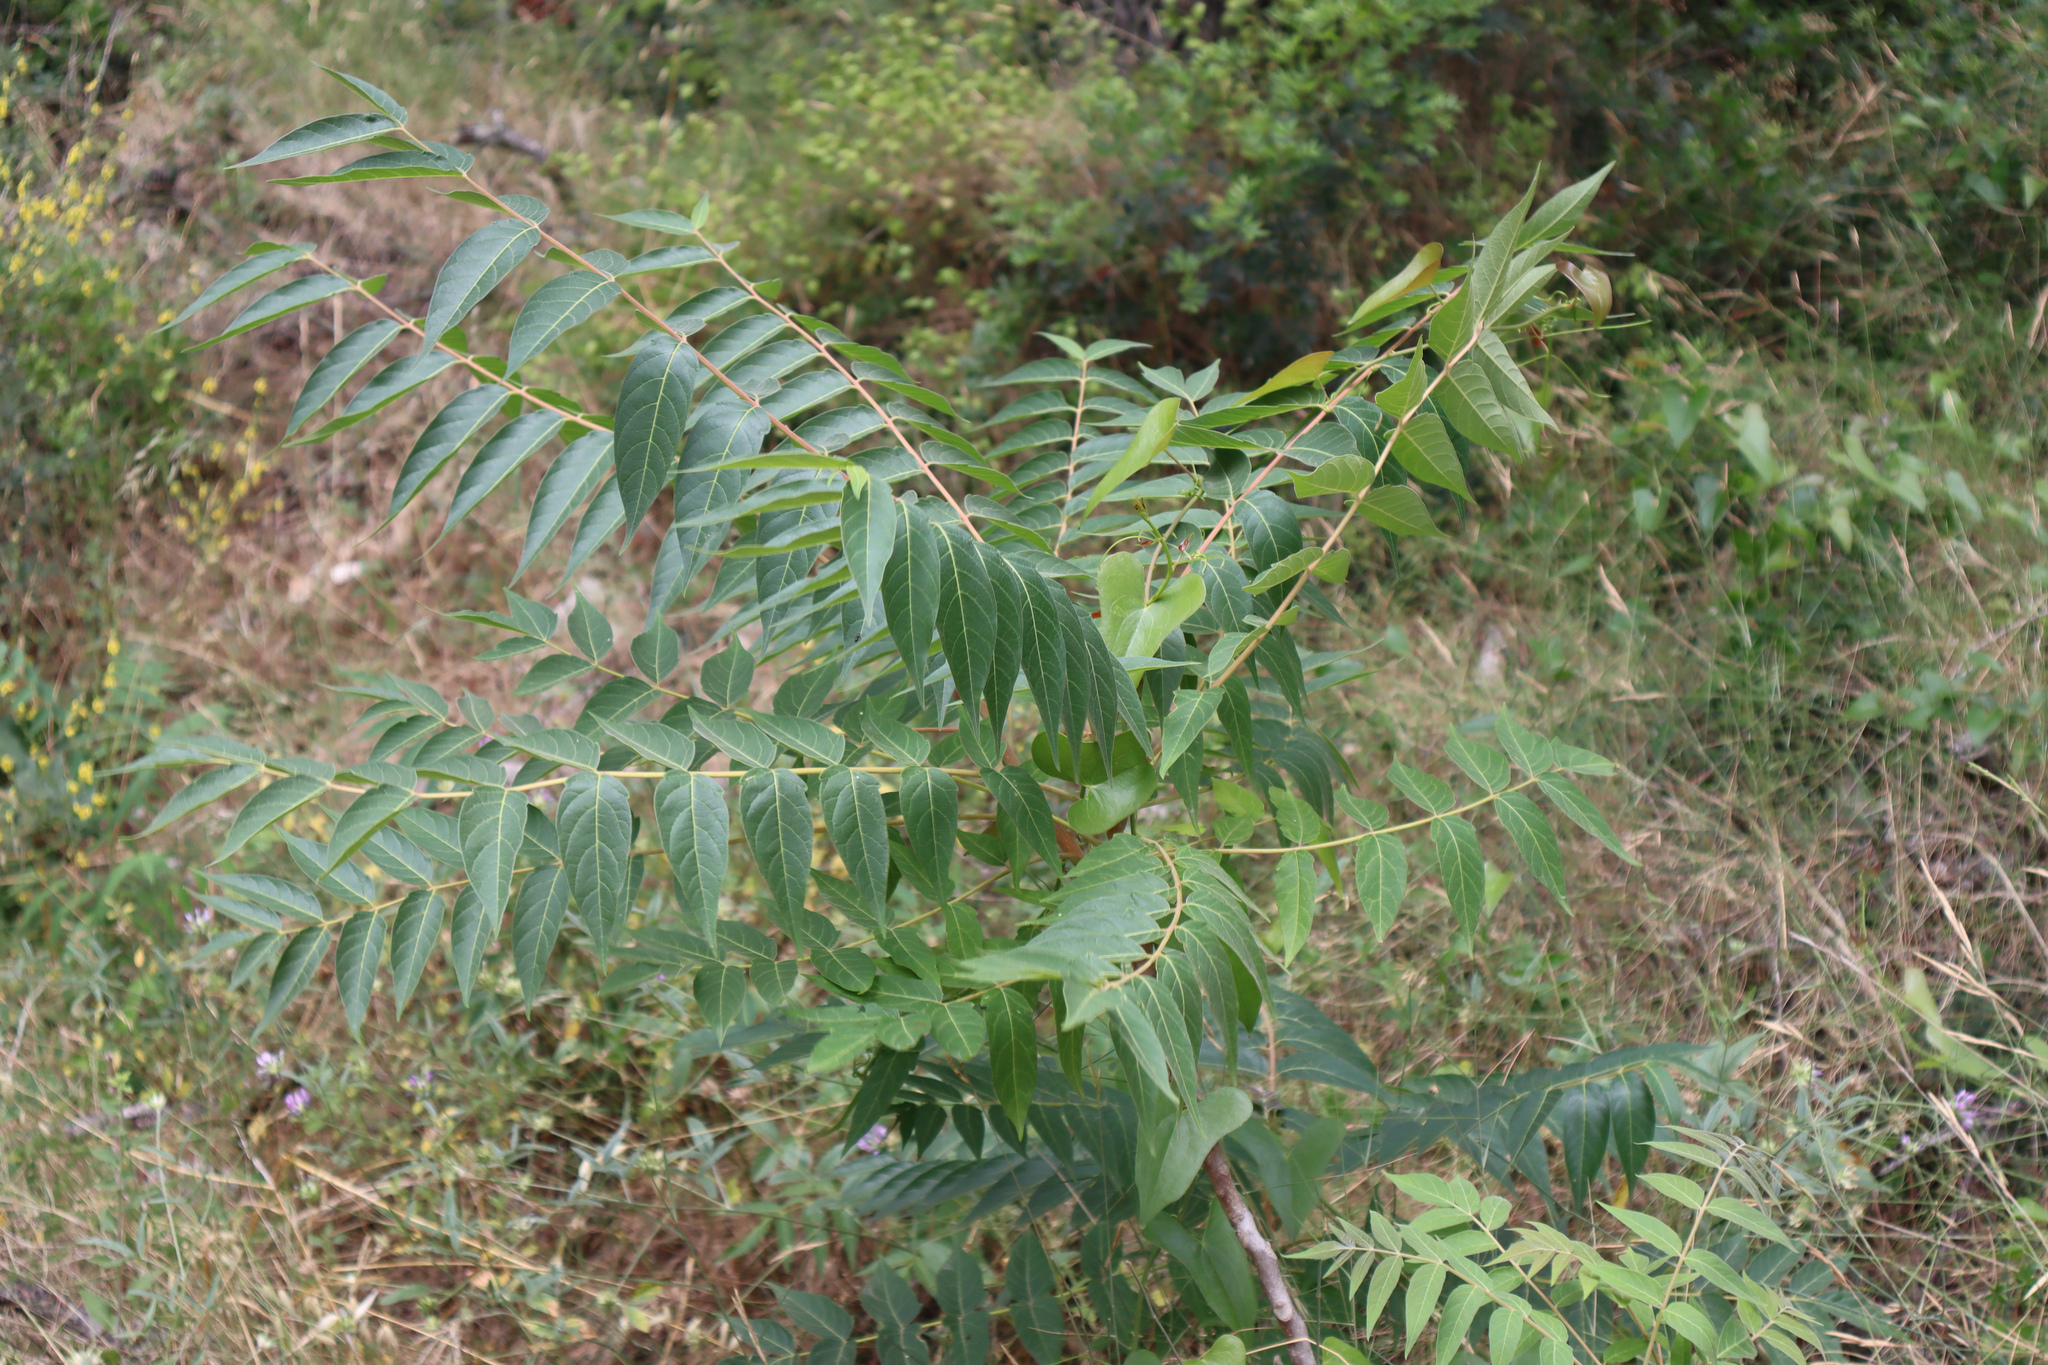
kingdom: Plantae
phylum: Tracheophyta
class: Magnoliopsida
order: Sapindales
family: Simaroubaceae
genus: Ailanthus
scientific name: Ailanthus altissima
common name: Tree-of-heaven
